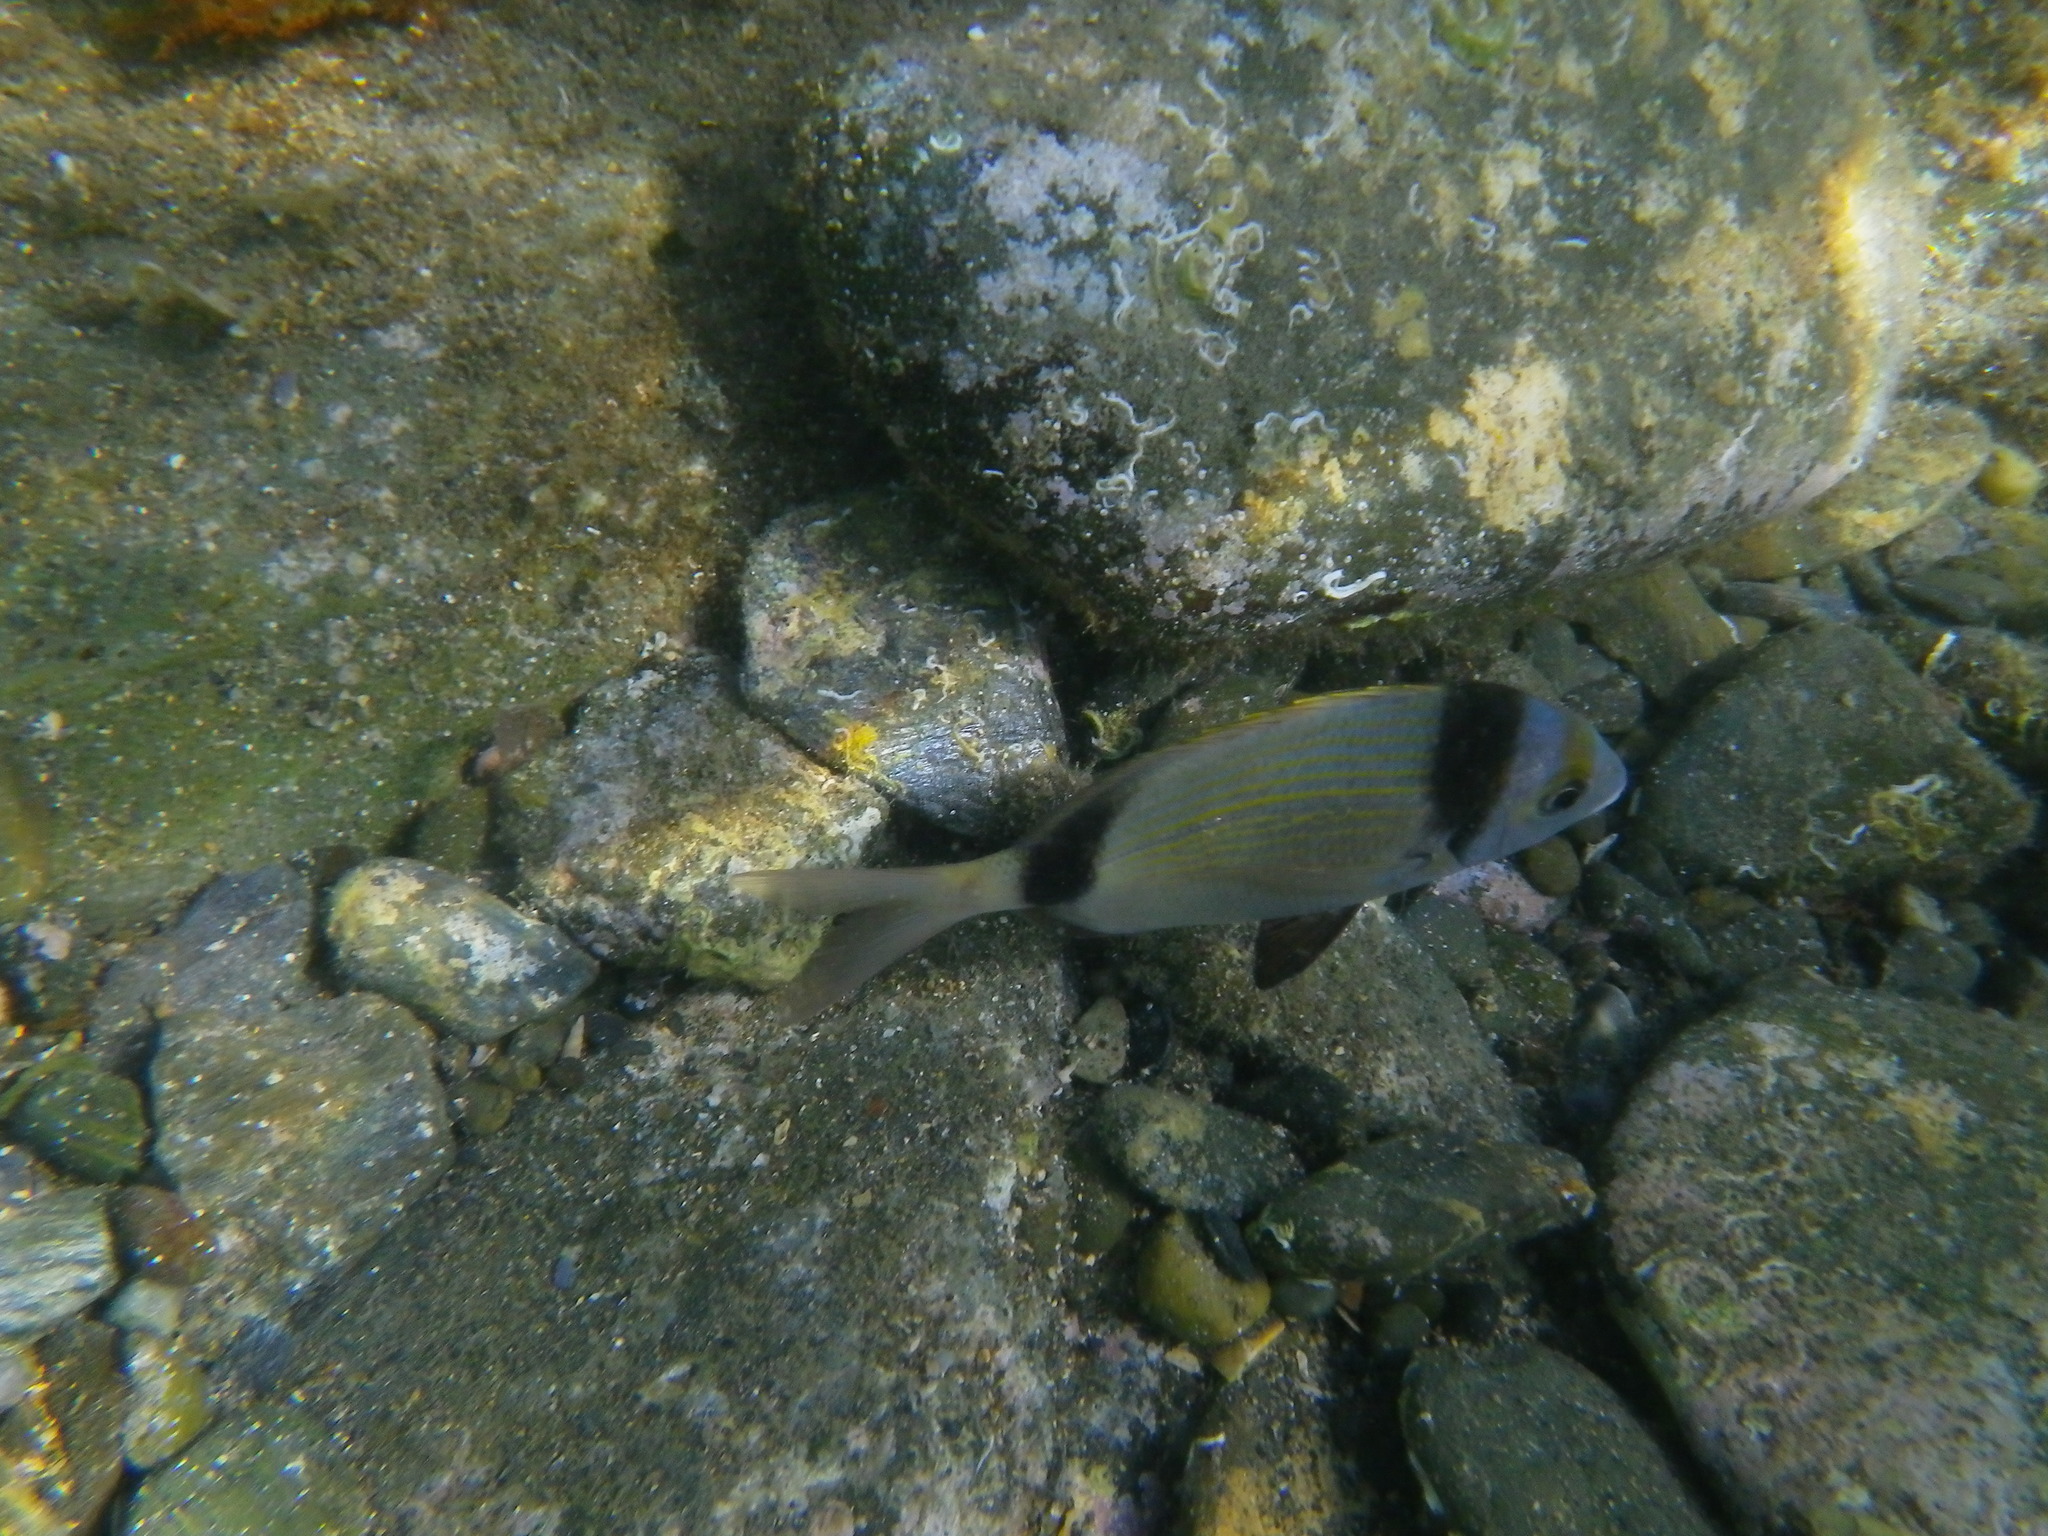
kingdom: Animalia
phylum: Chordata
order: Perciformes
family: Sparidae
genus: Diplodus
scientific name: Diplodus vulgaris
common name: Common two-banded seabream
